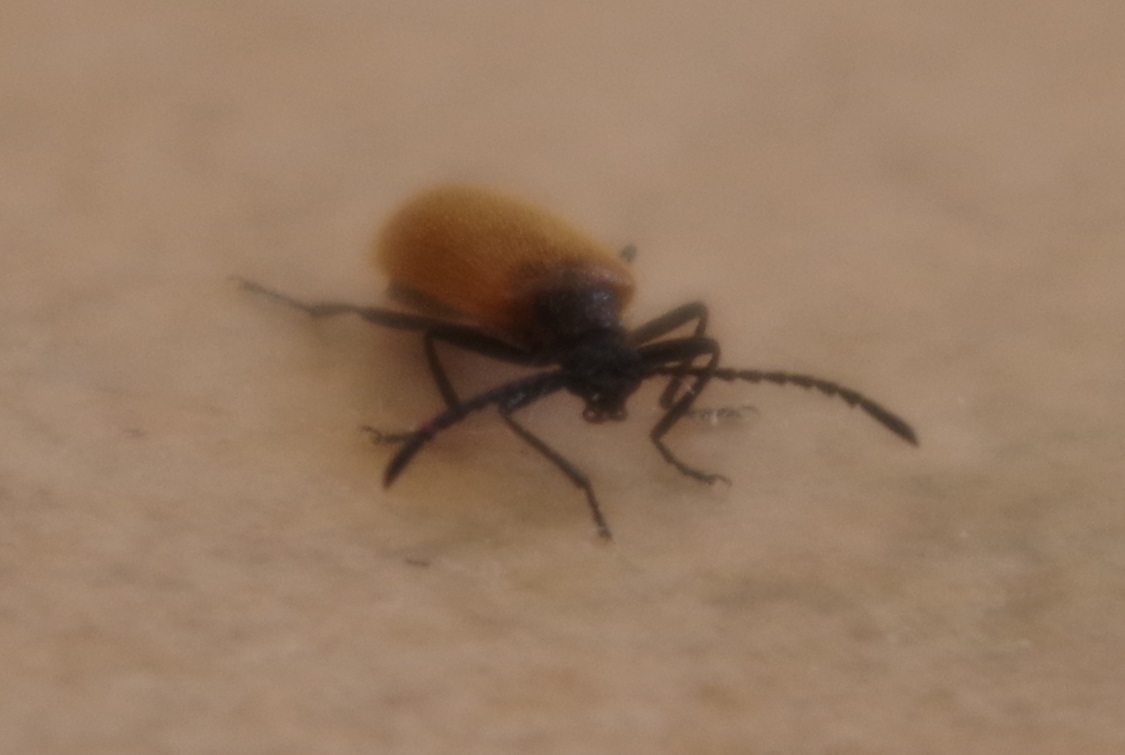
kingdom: Animalia
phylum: Arthropoda
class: Insecta
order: Coleoptera
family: Tenebrionidae
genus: Lagria
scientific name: Lagria hirta
